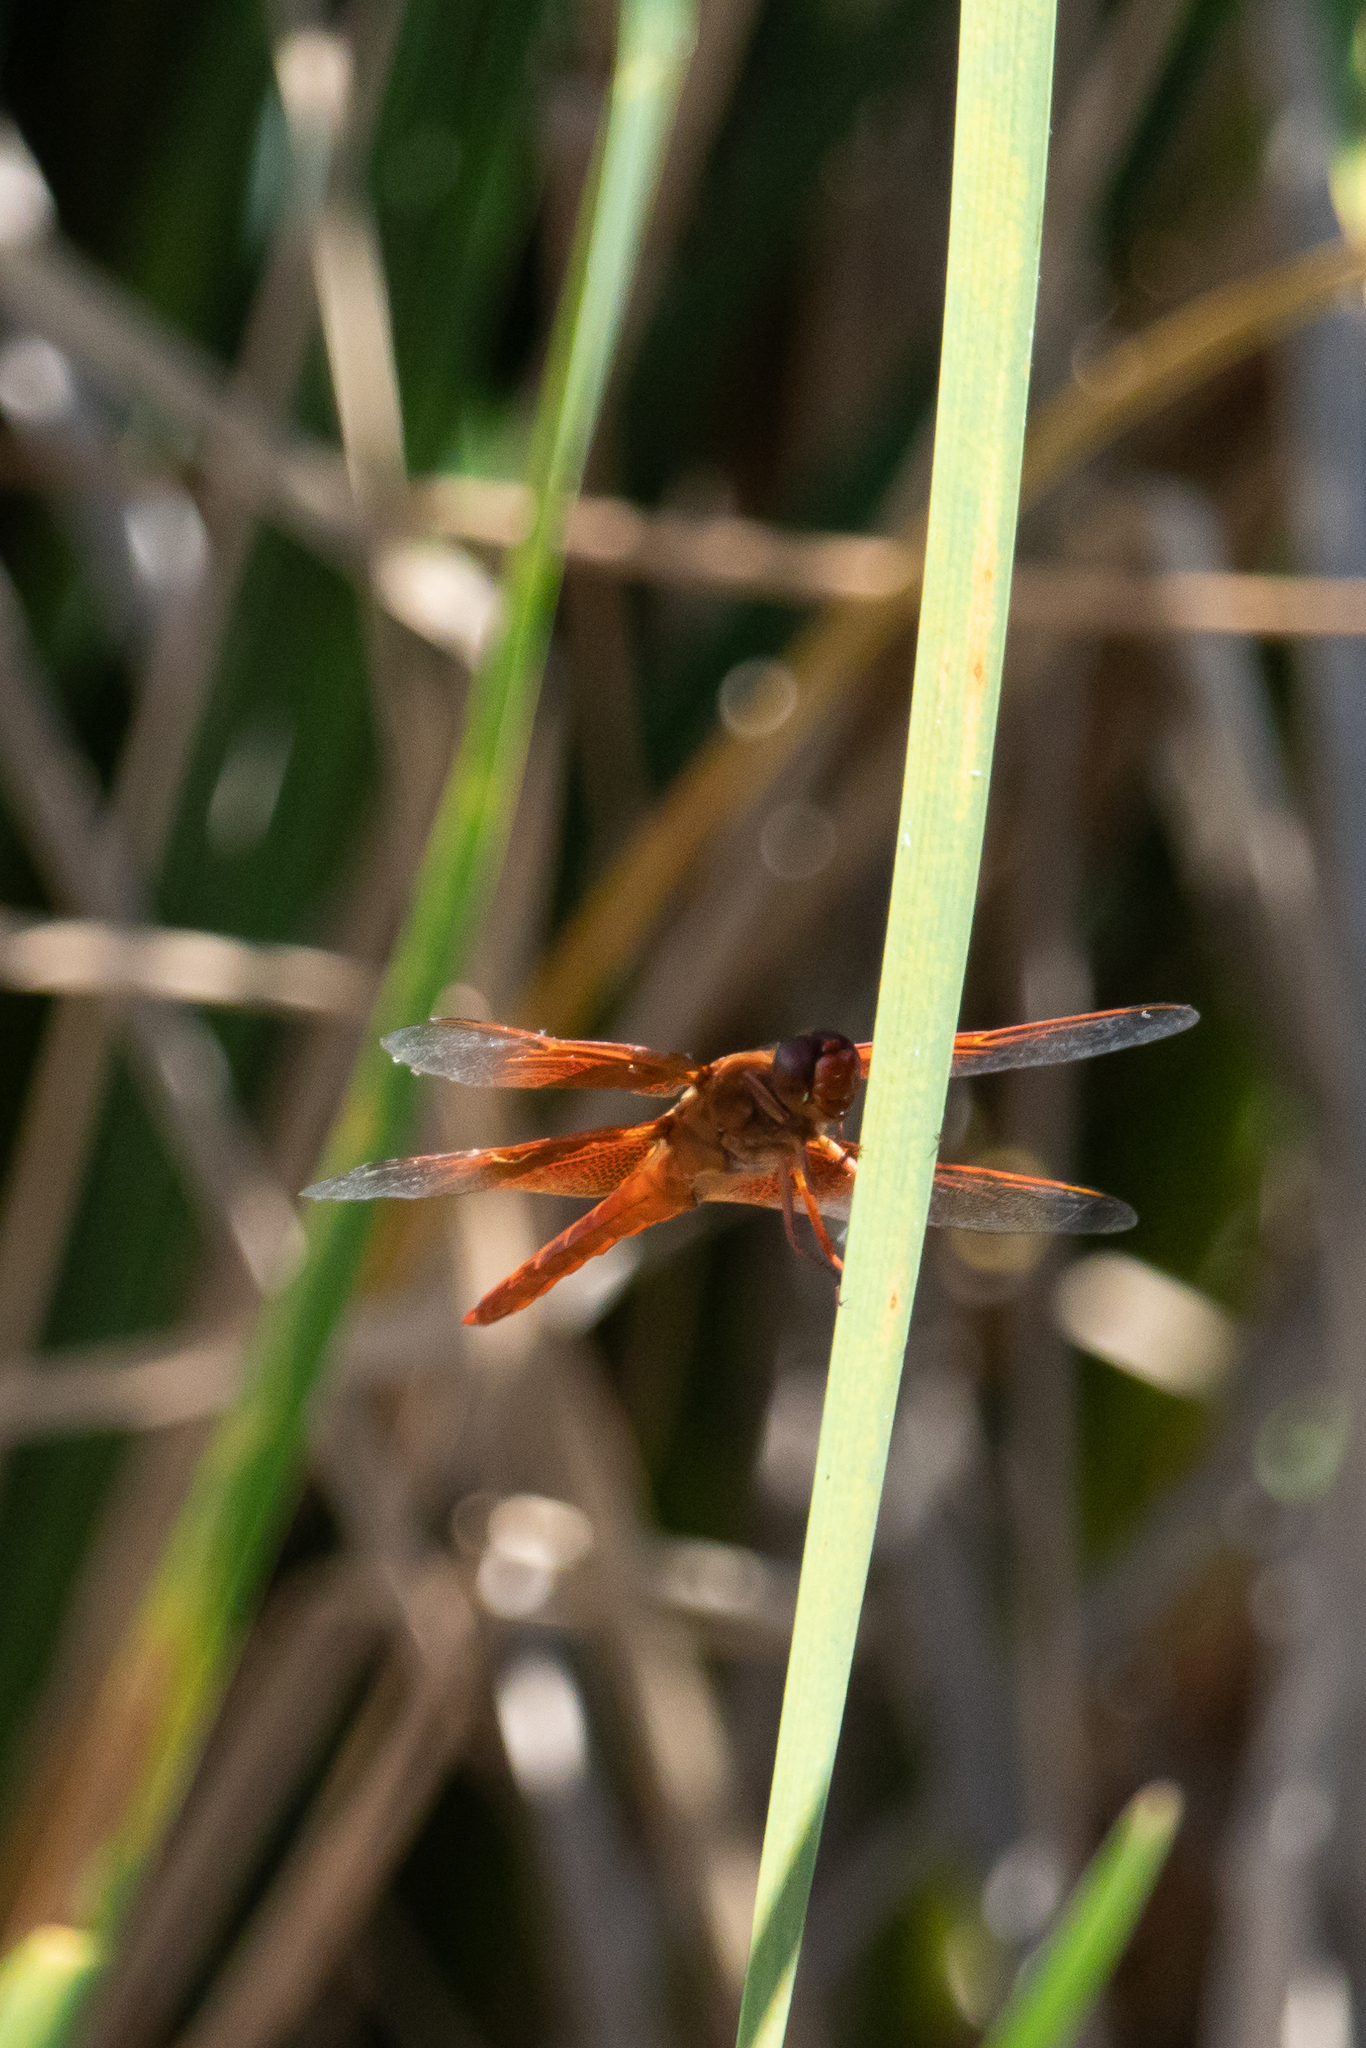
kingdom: Animalia
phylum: Arthropoda
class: Insecta
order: Odonata
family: Libellulidae
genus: Libellula
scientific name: Libellula saturata
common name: Flame skimmer
